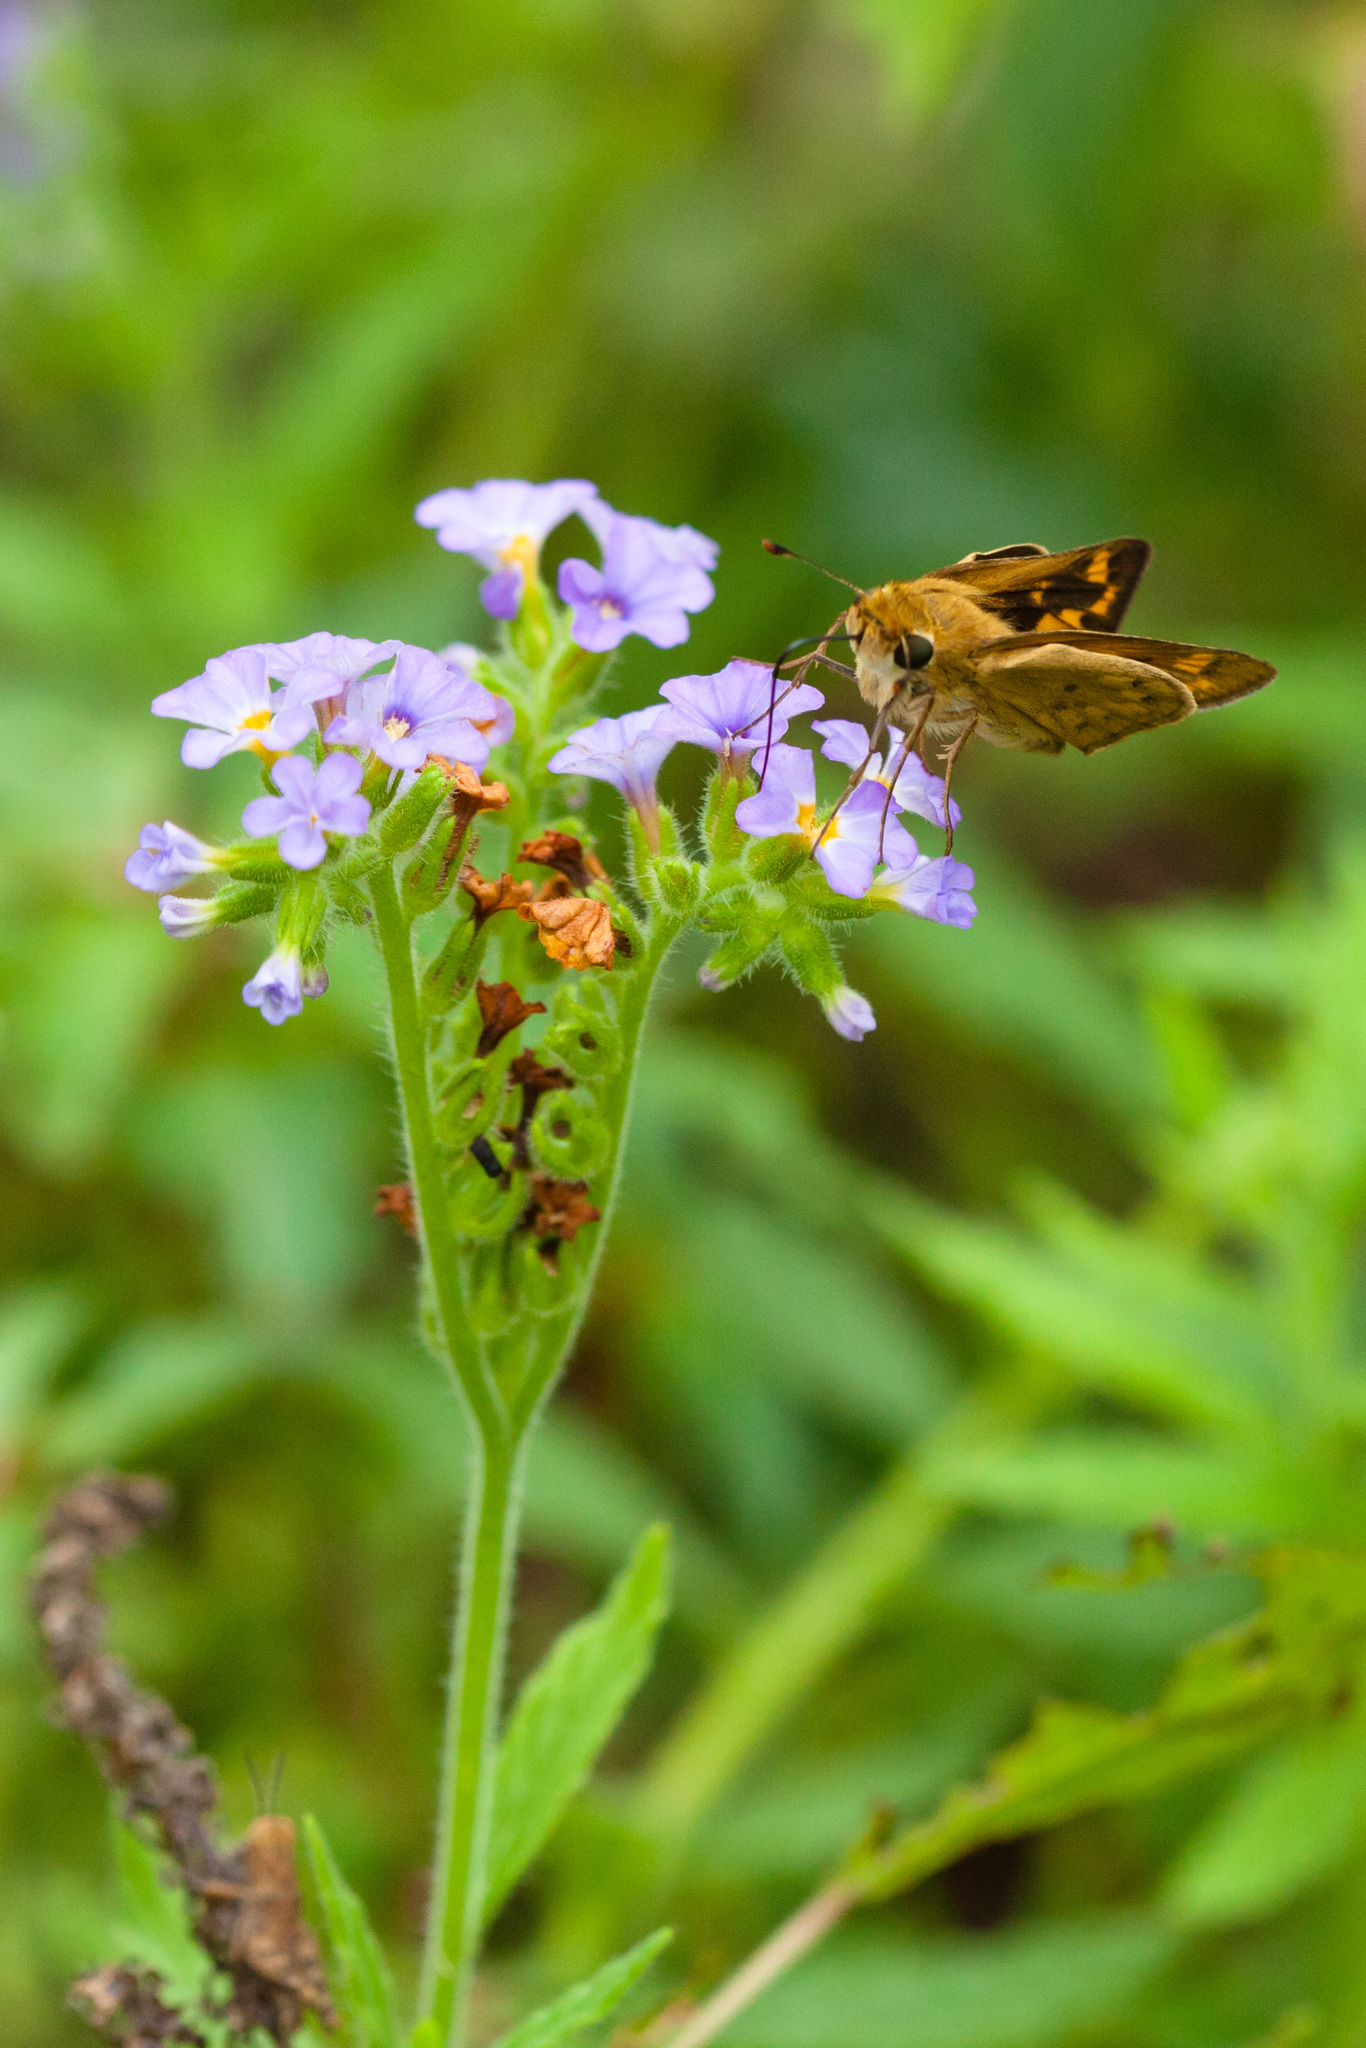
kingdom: Animalia
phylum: Arthropoda
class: Insecta
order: Lepidoptera
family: Hesperiidae
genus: Hylephila
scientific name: Hylephila phyleus
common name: Fiery skipper
